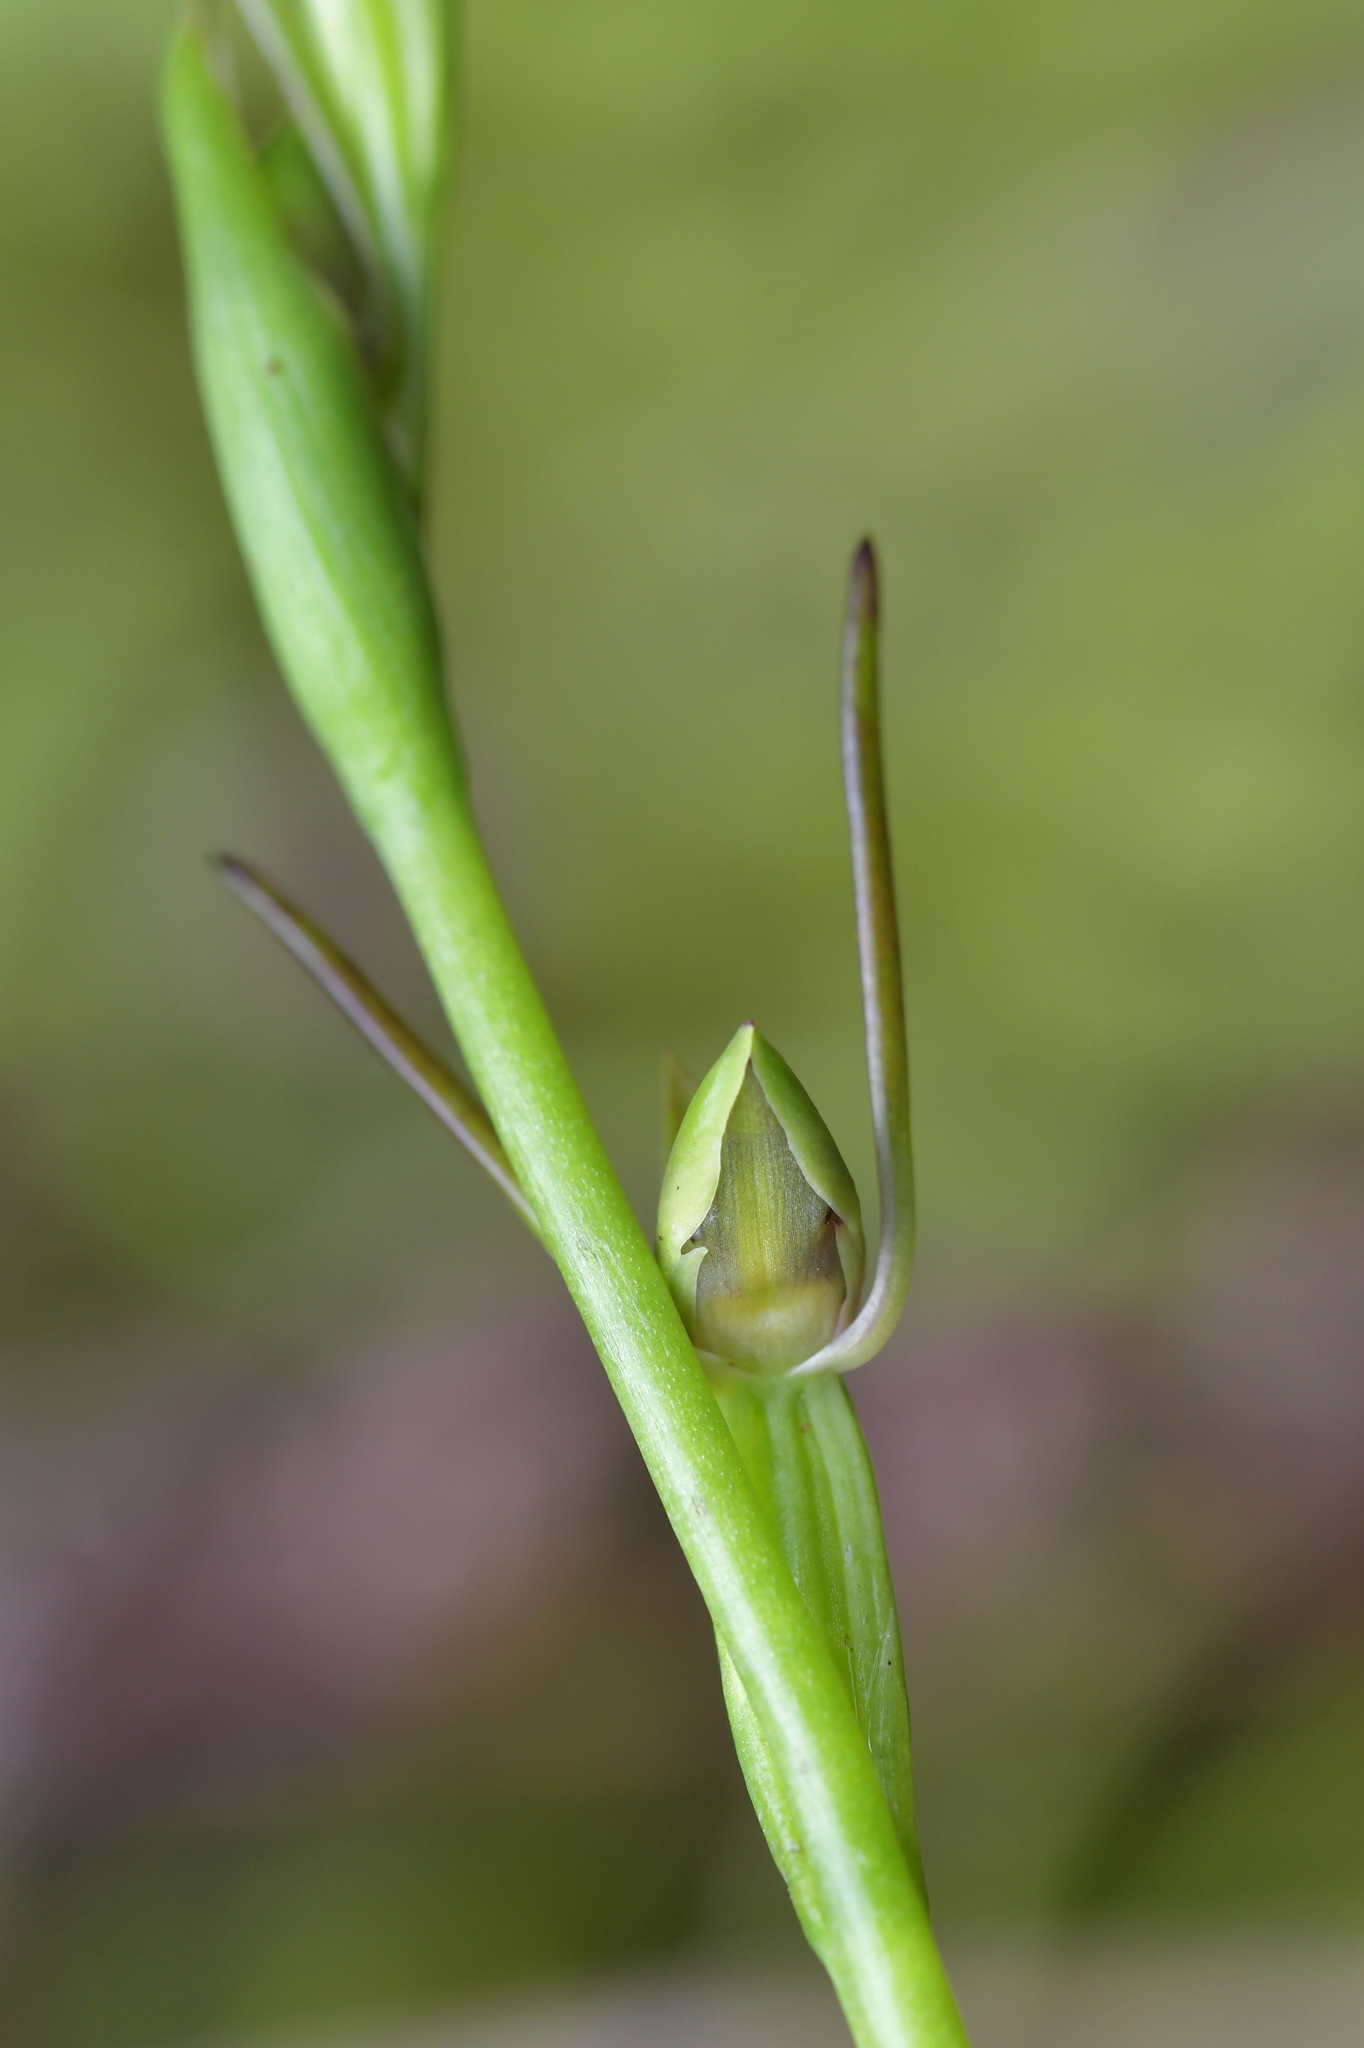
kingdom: Plantae
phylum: Tracheophyta
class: Liliopsida
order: Asparagales
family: Orchidaceae
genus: Orthoceras
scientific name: Orthoceras novae-zeelandiae
